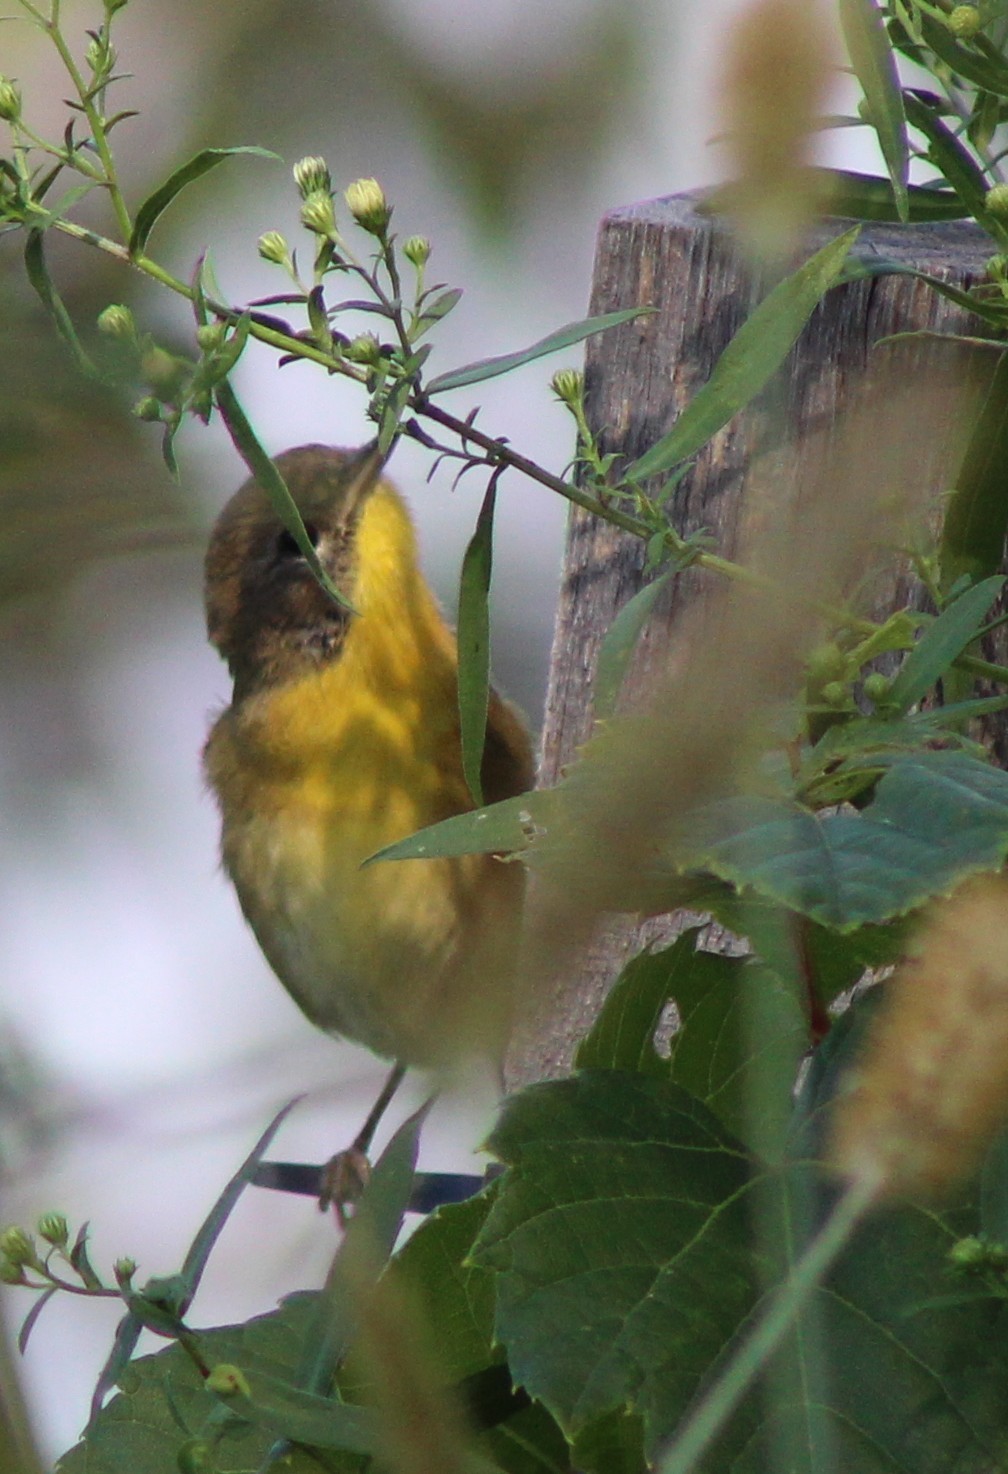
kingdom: Animalia
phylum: Chordata
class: Aves
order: Passeriformes
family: Parulidae
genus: Geothlypis
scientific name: Geothlypis trichas
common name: Common yellowthroat
